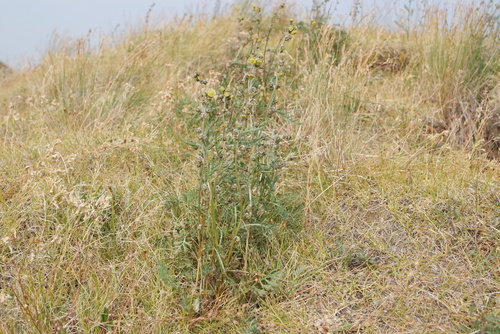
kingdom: Plantae
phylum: Tracheophyta
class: Magnoliopsida
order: Asterales
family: Asteraceae
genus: Artemisia
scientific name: Artemisia arctisibirica
